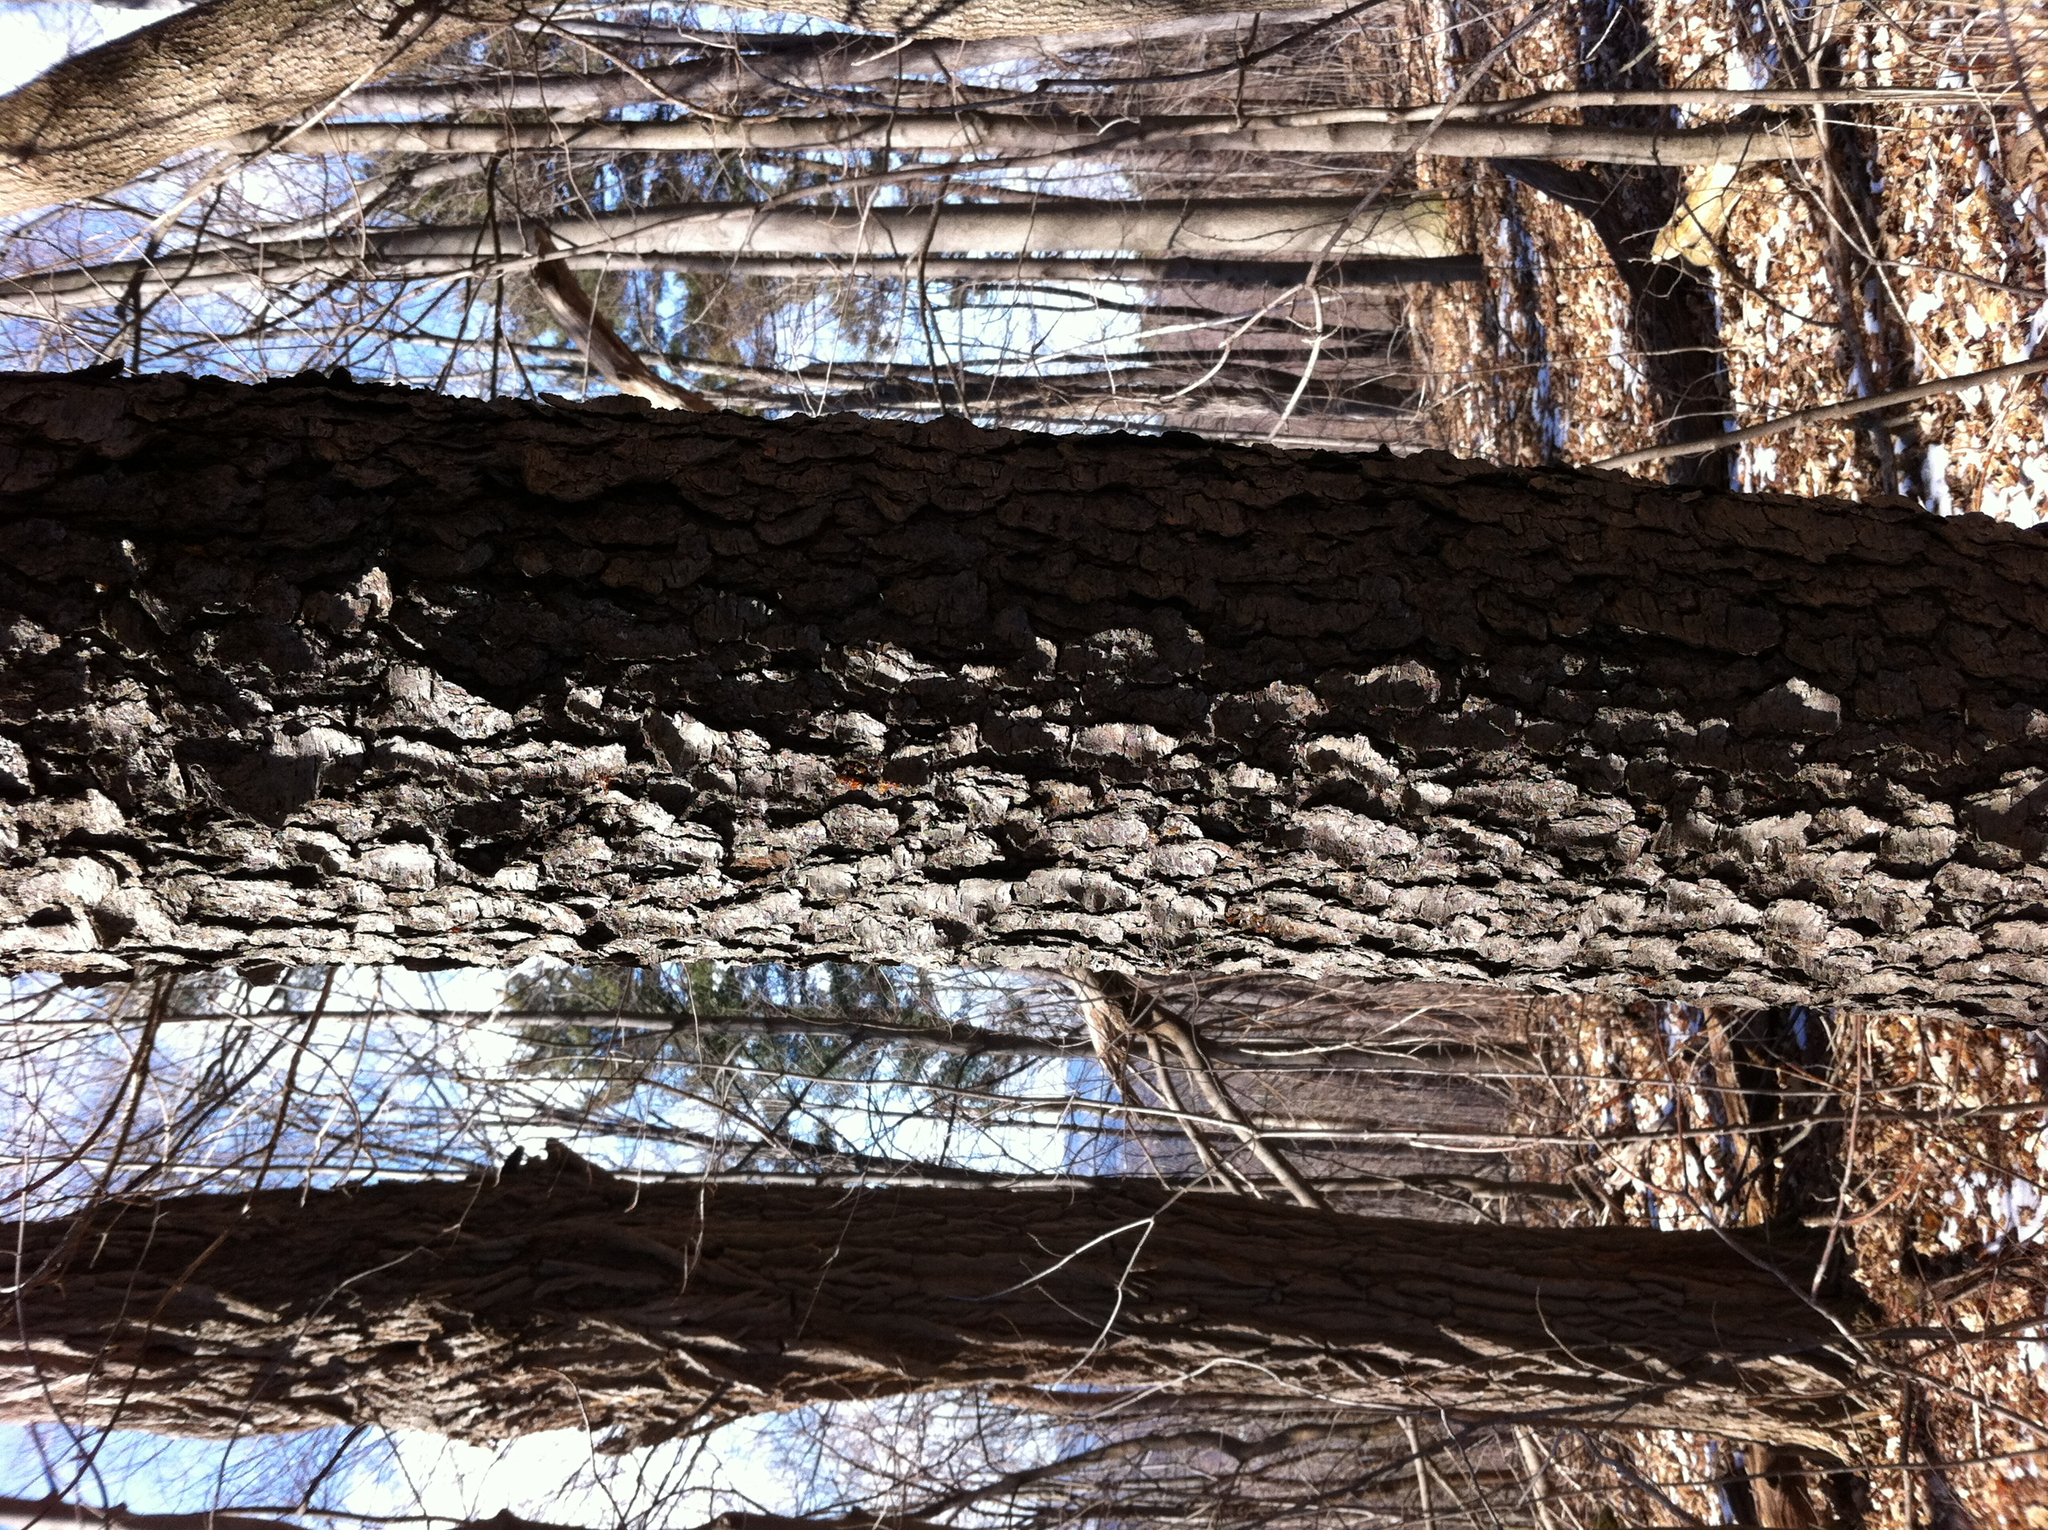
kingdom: Plantae
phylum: Tracheophyta
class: Magnoliopsida
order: Rosales
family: Rosaceae
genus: Prunus
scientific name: Prunus serotina
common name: Black cherry
